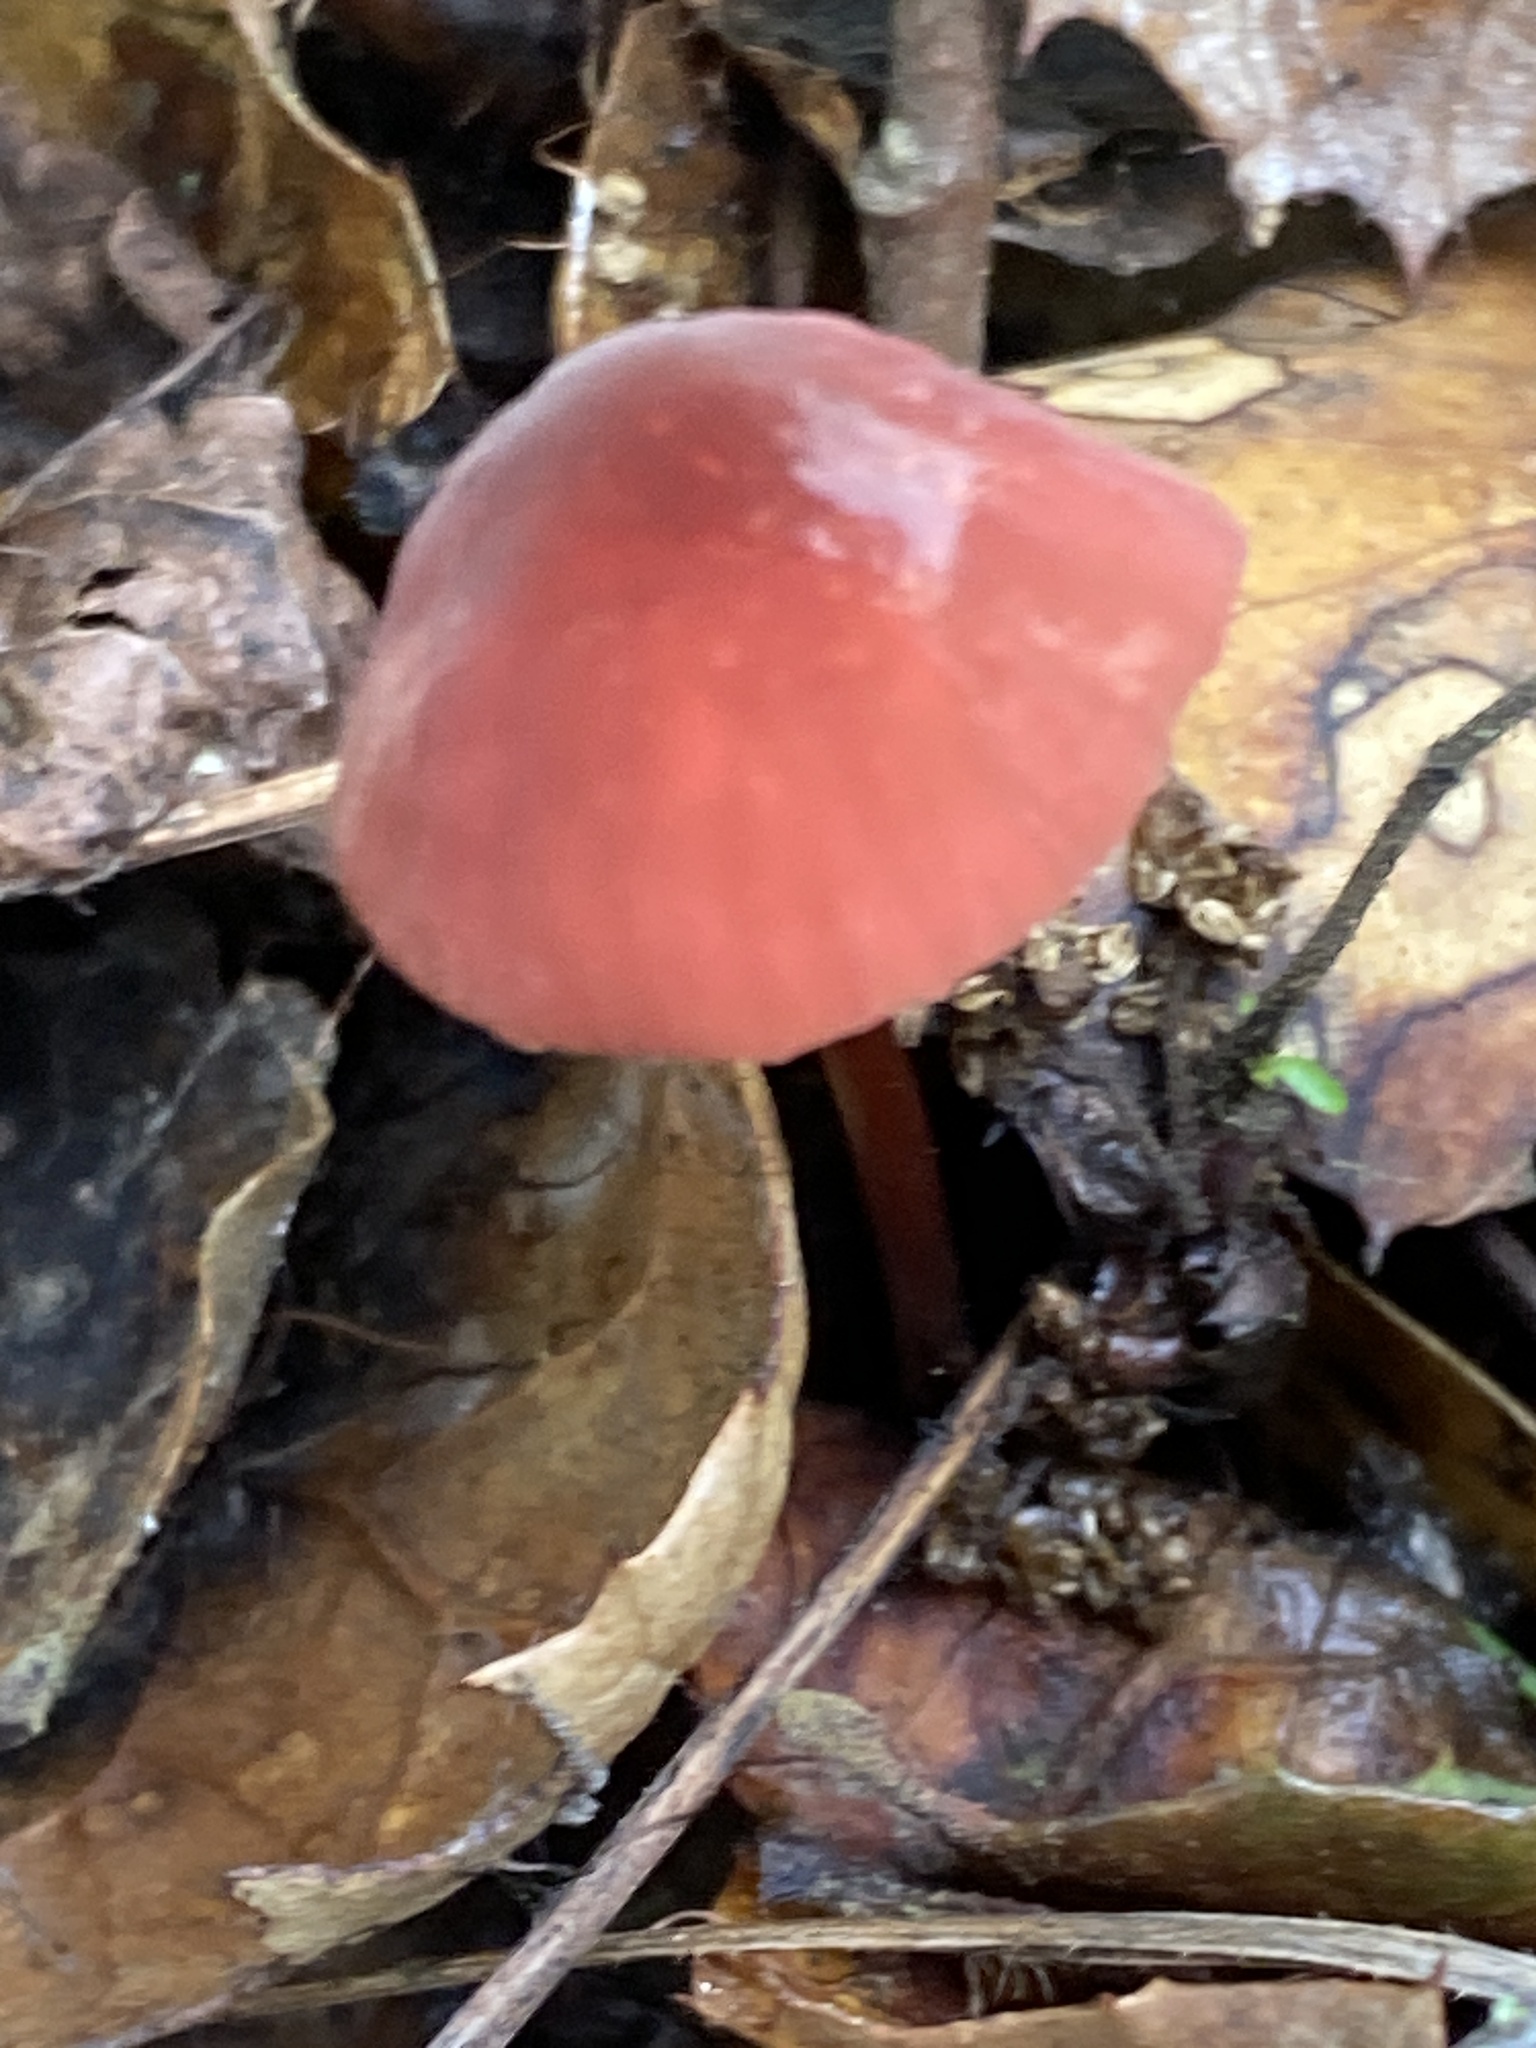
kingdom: Fungi
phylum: Basidiomycota
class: Agaricomycetes
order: Agaricales
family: Marasmiaceae
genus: Marasmius
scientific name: Marasmius plicatulus
